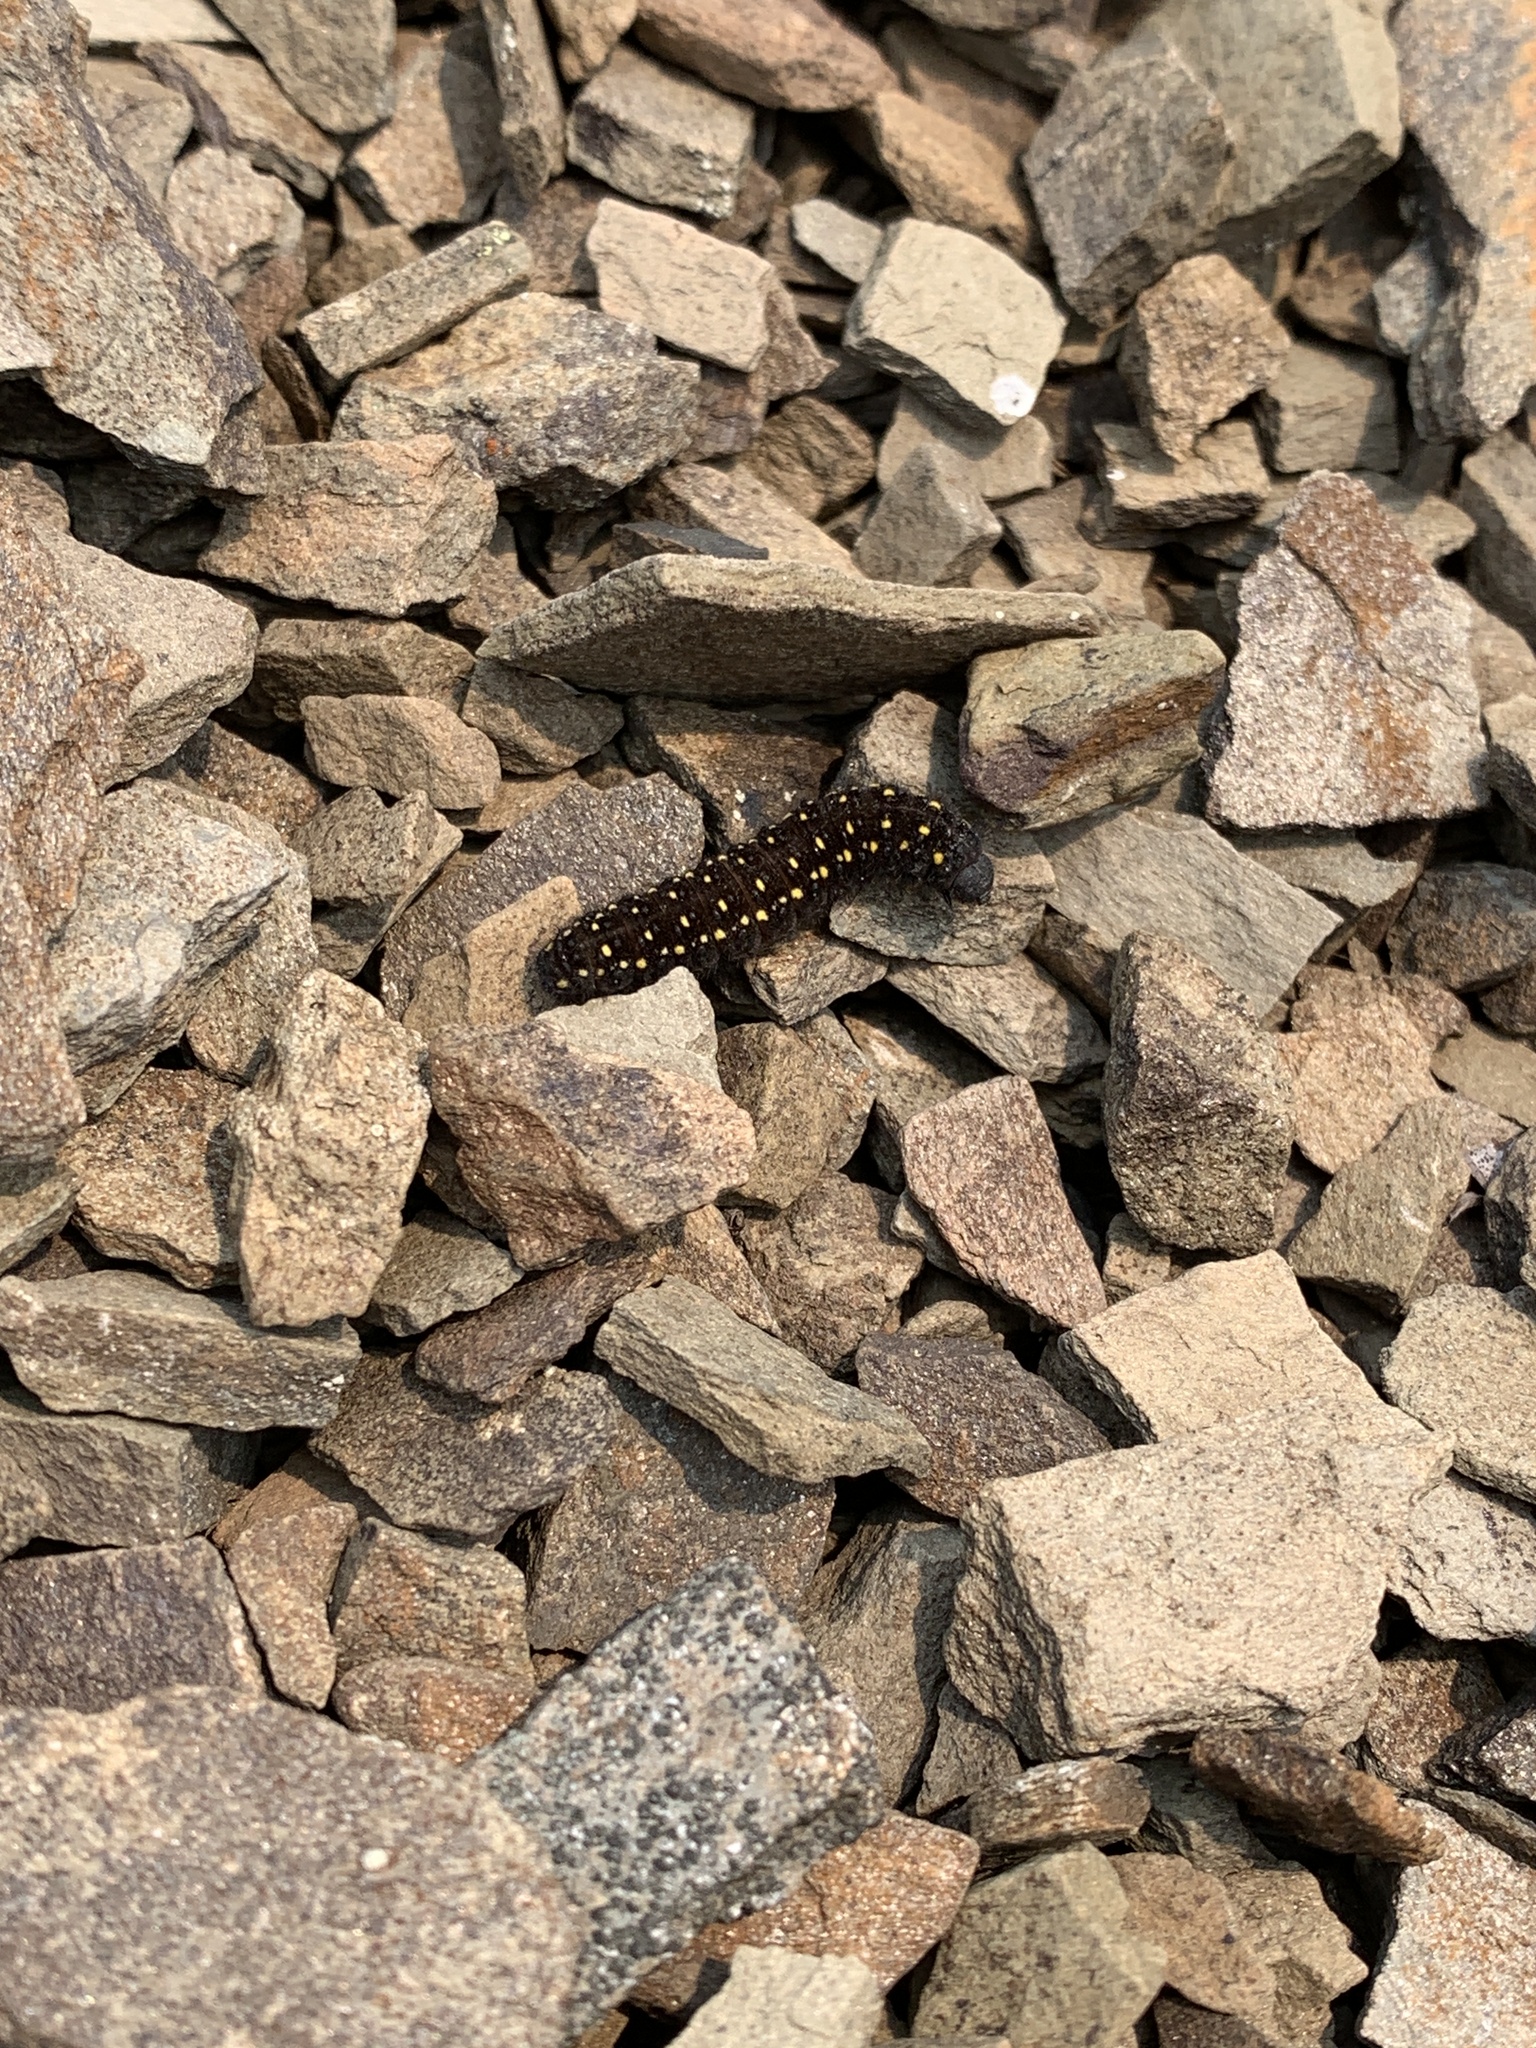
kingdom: Animalia
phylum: Arthropoda
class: Insecta
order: Lepidoptera
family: Papilionidae
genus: Parnassius
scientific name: Parnassius smintheus
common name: Mountain parnassian
